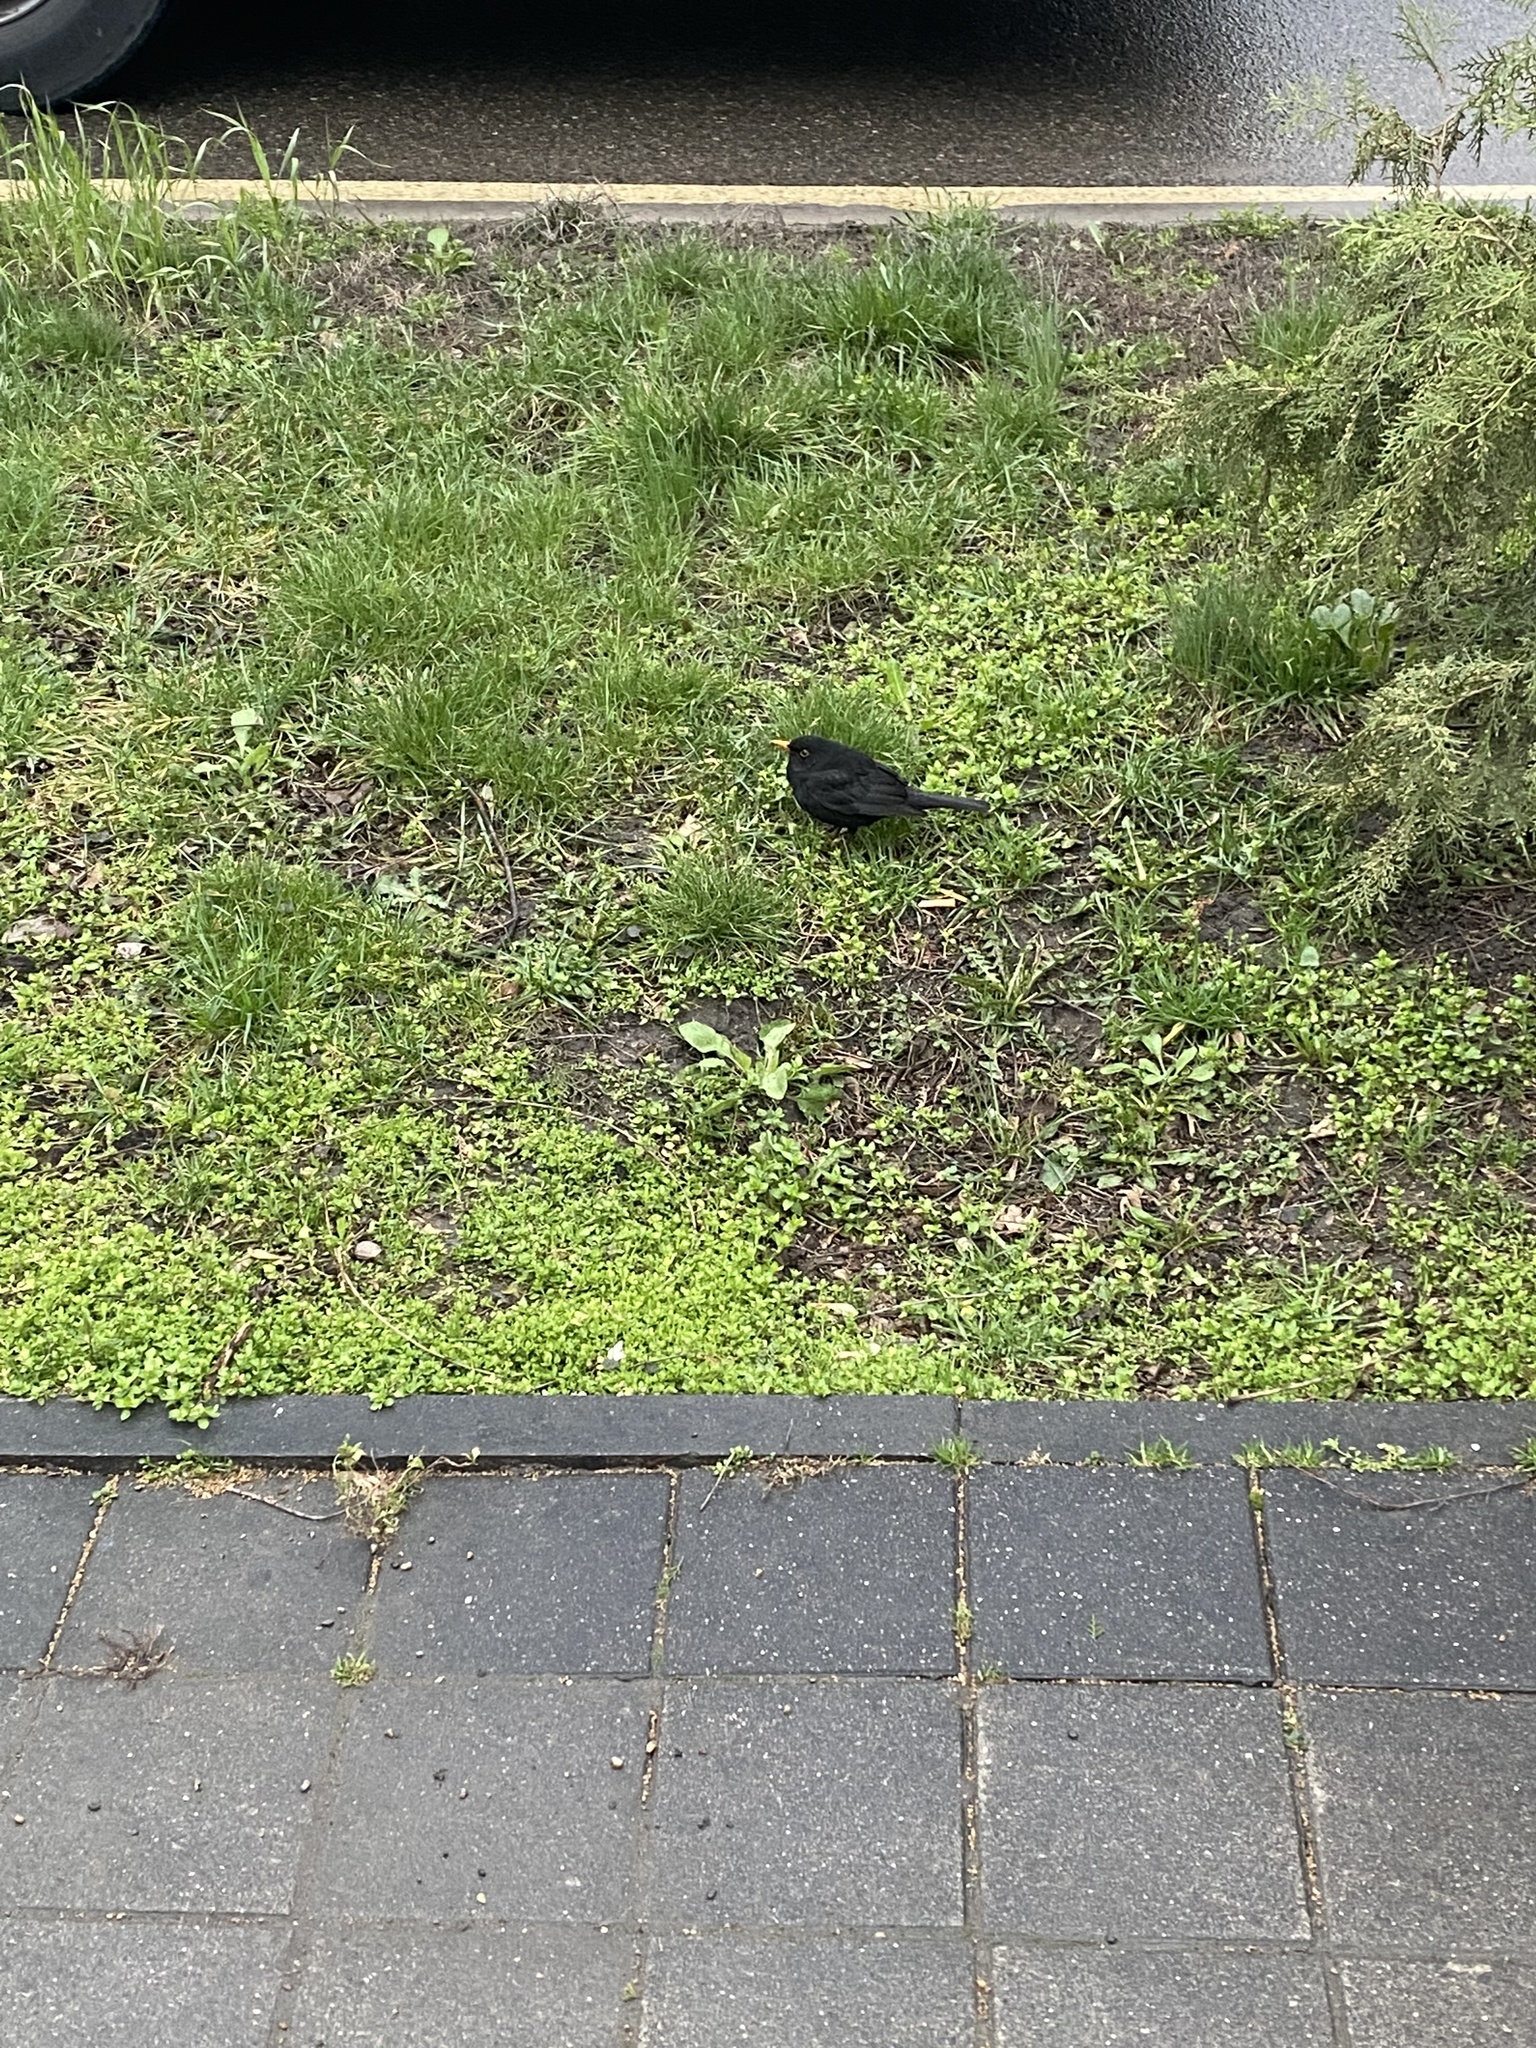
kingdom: Animalia
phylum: Chordata
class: Aves
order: Passeriformes
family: Turdidae
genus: Turdus
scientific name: Turdus merula
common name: Common blackbird
